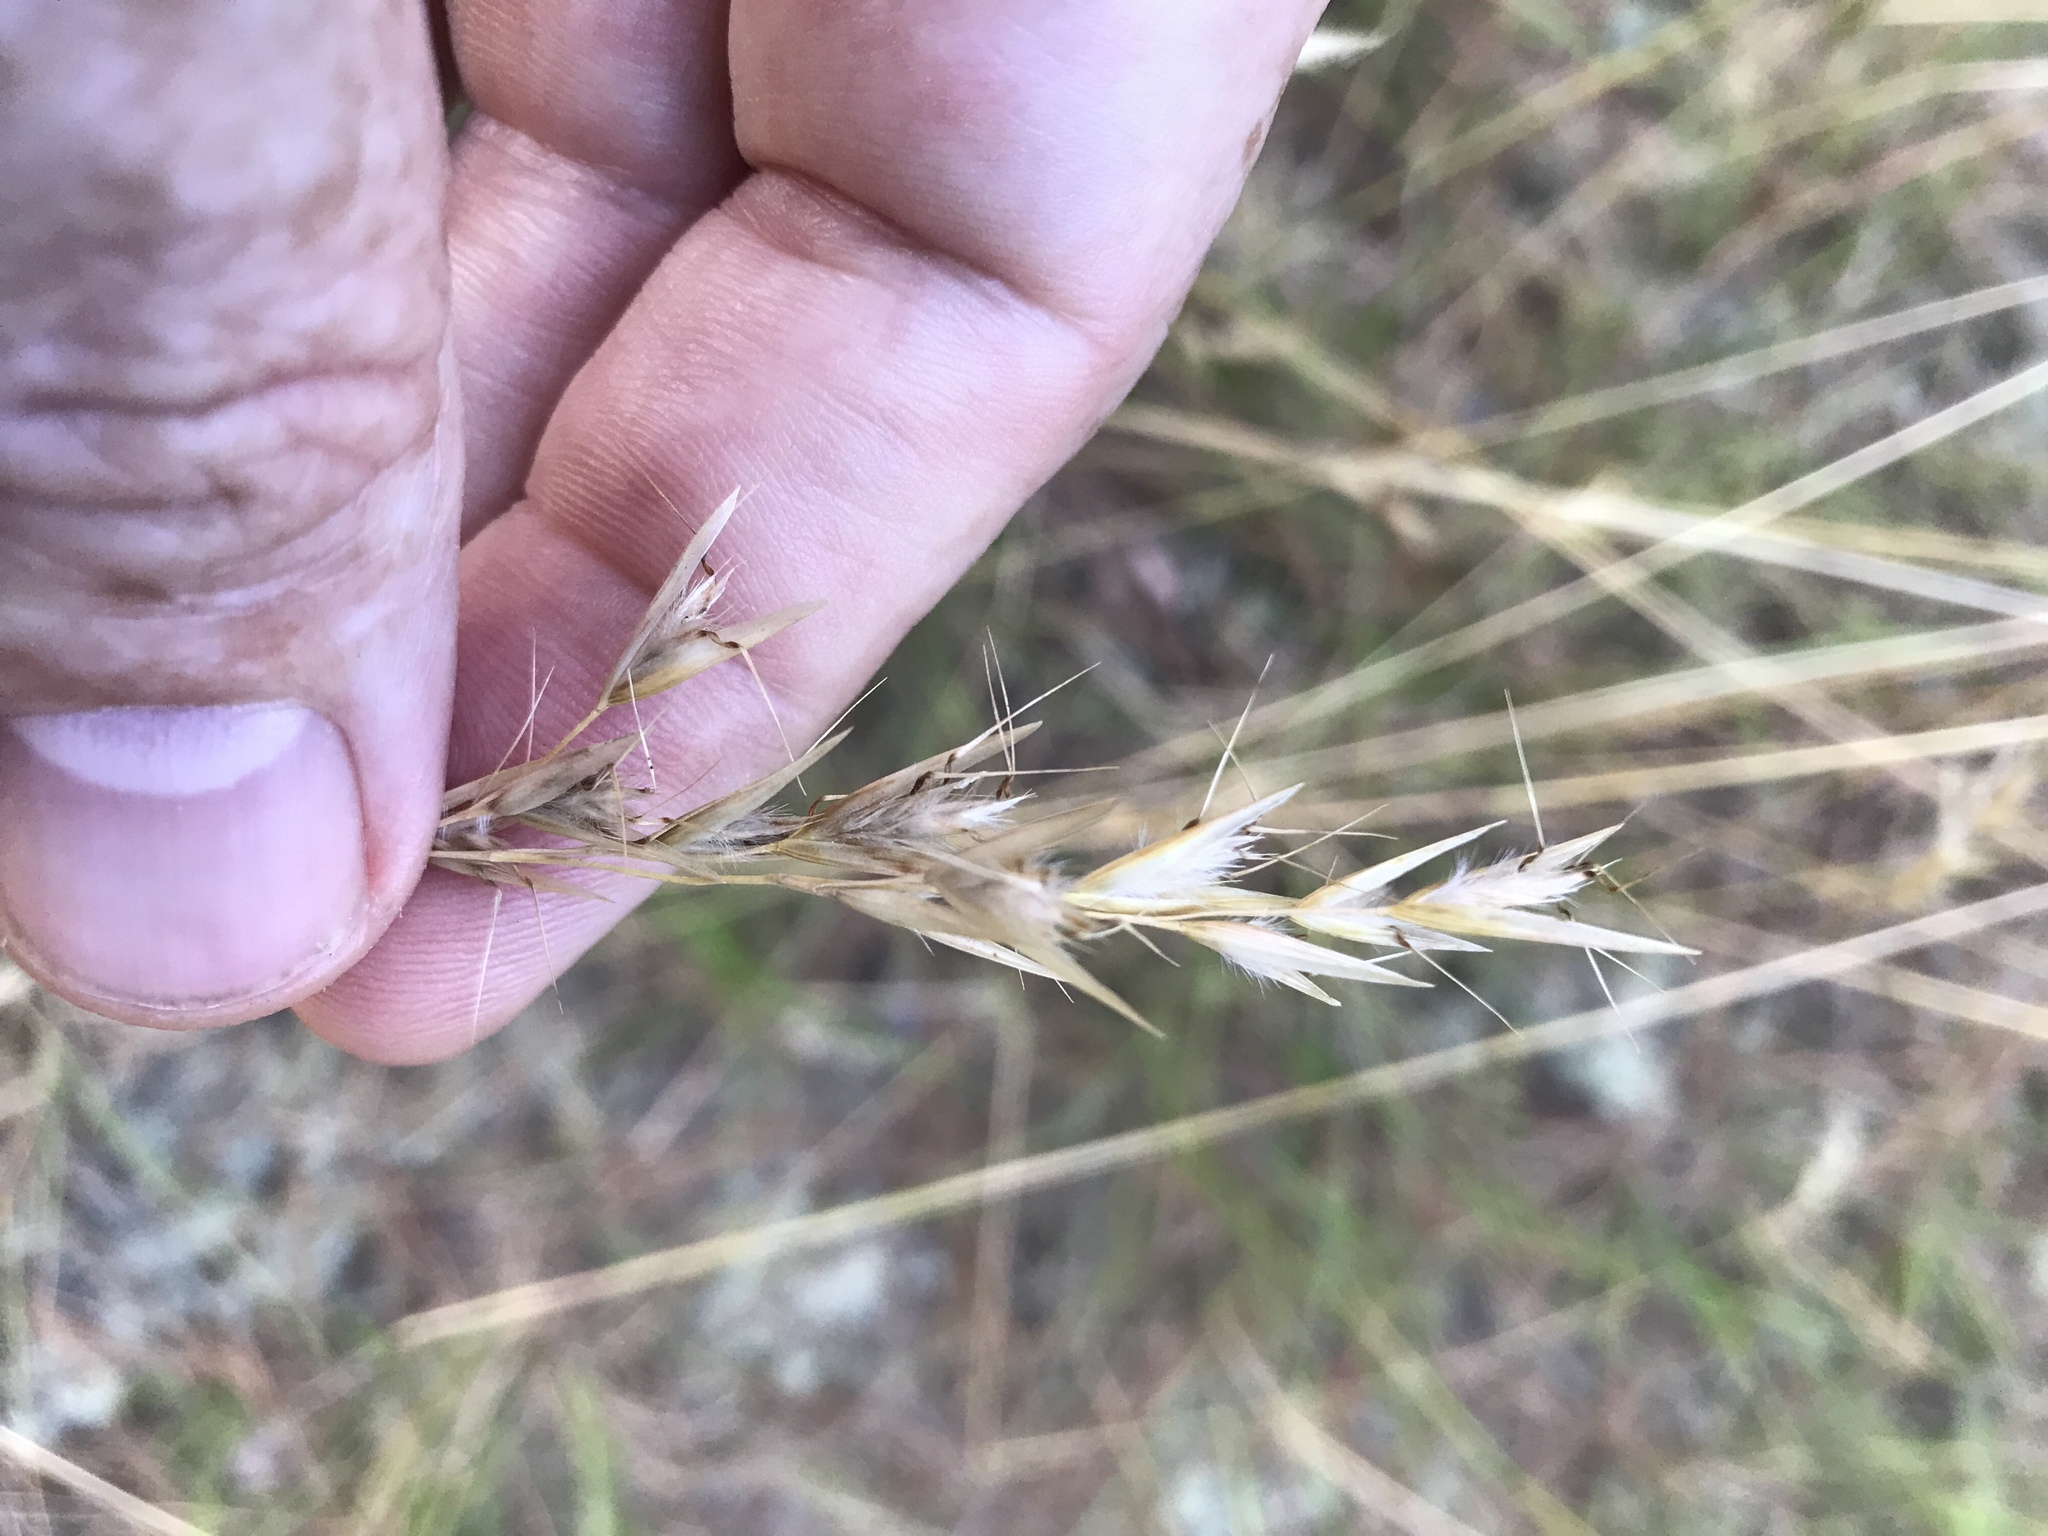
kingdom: Plantae
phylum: Tracheophyta
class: Liliopsida
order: Poales
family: Poaceae
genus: Danthonia
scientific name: Danthonia sericea
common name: Downy danthonia
